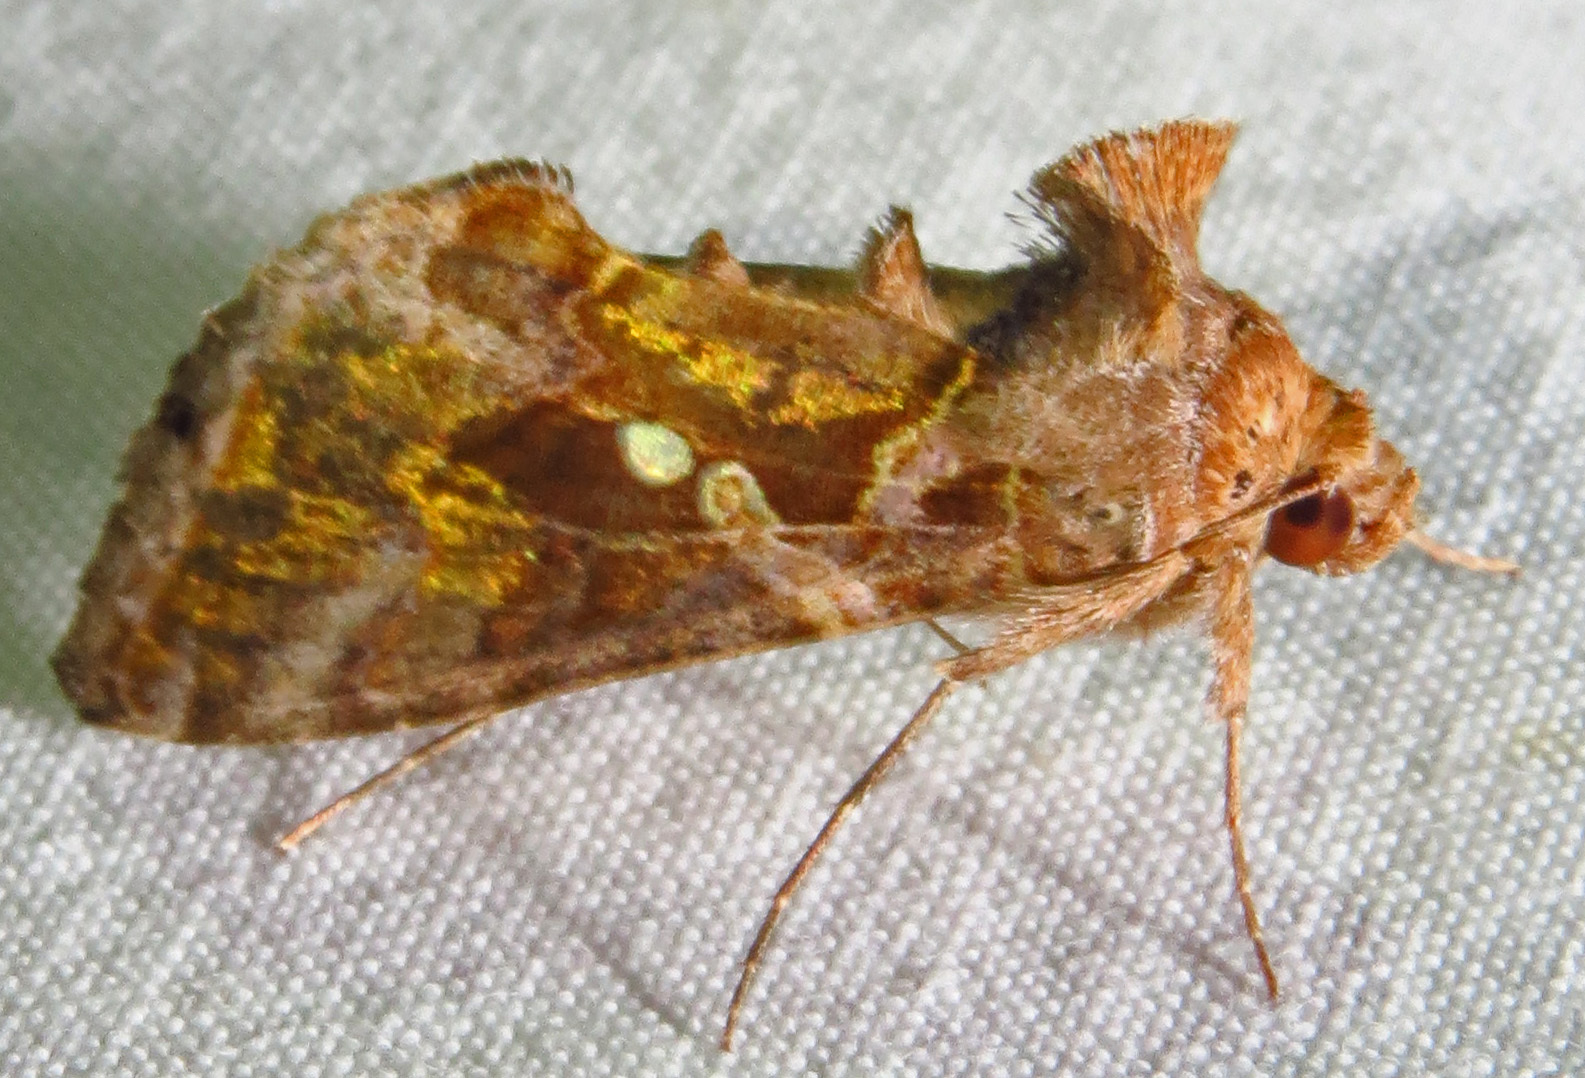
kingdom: Animalia
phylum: Arthropoda
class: Insecta
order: Lepidoptera
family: Noctuidae
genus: Chrysodeixis
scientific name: Chrysodeixis includens
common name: Cutworm moth
